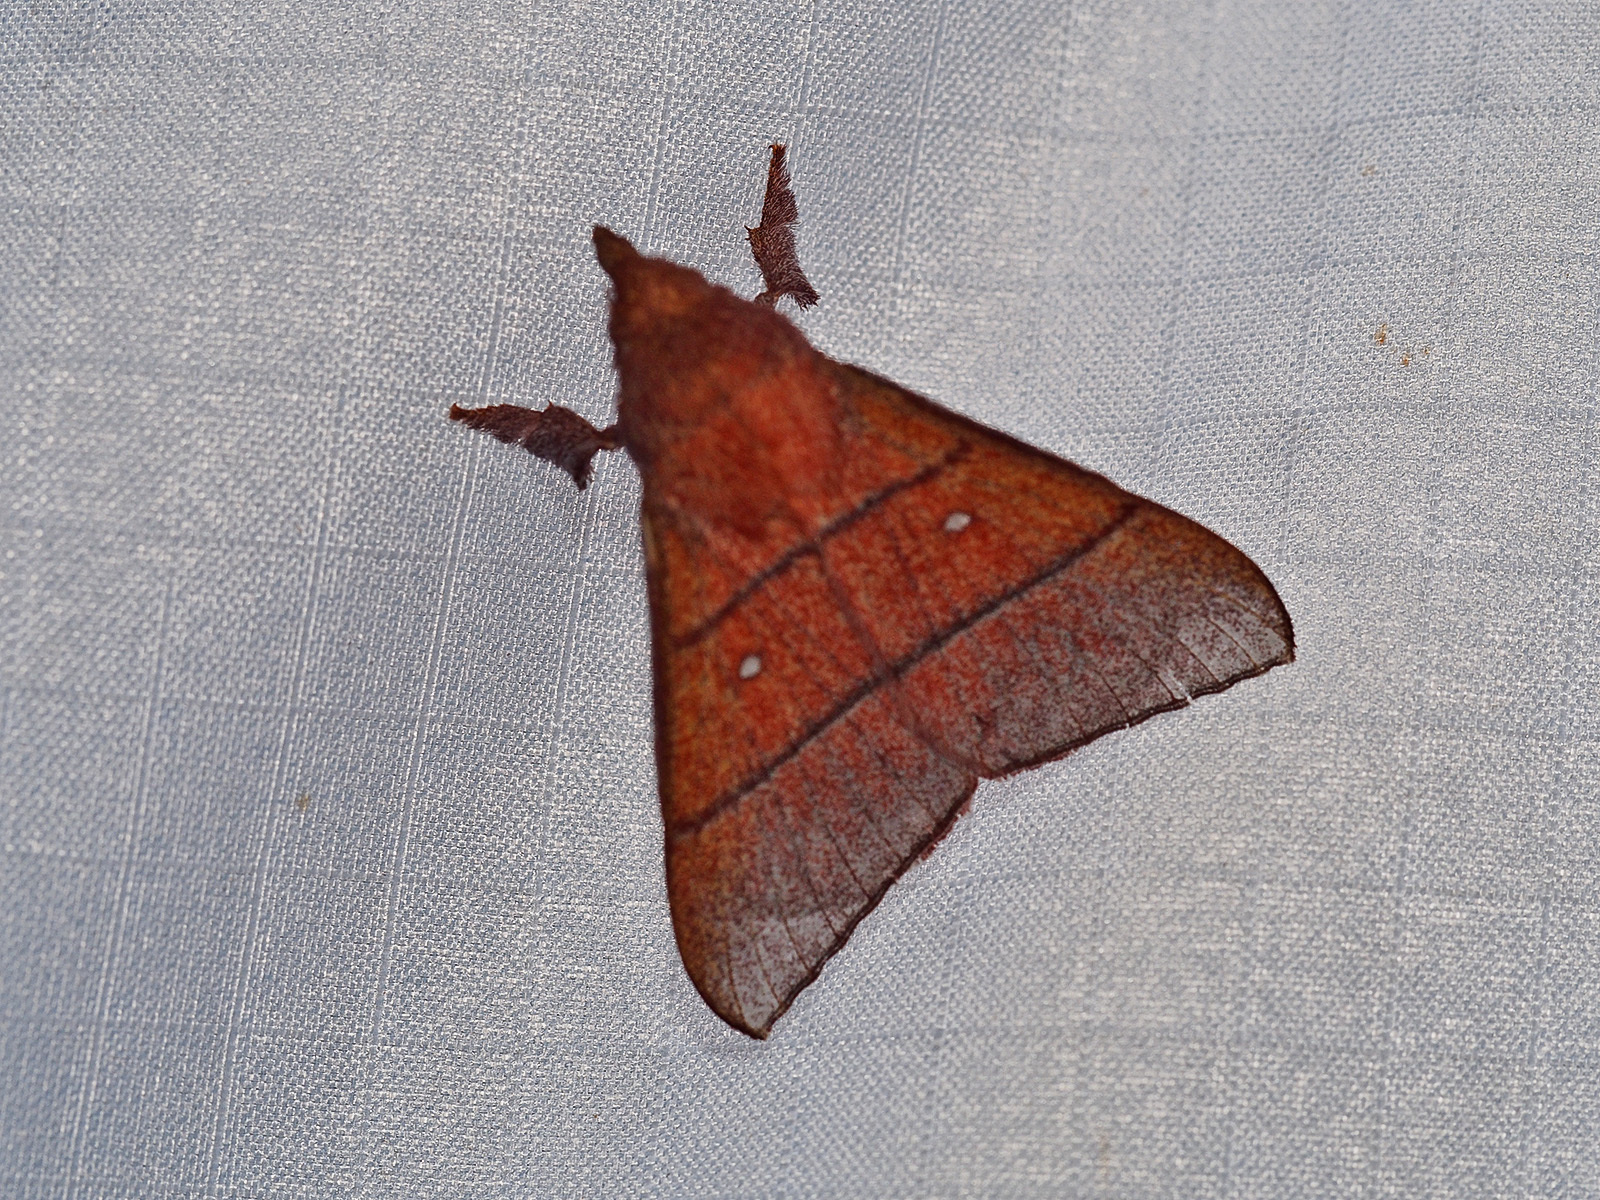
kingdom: Animalia
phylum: Arthropoda
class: Insecta
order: Lepidoptera
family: Lasiocampidae
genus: Odonestis
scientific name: Odonestis erectilinea
